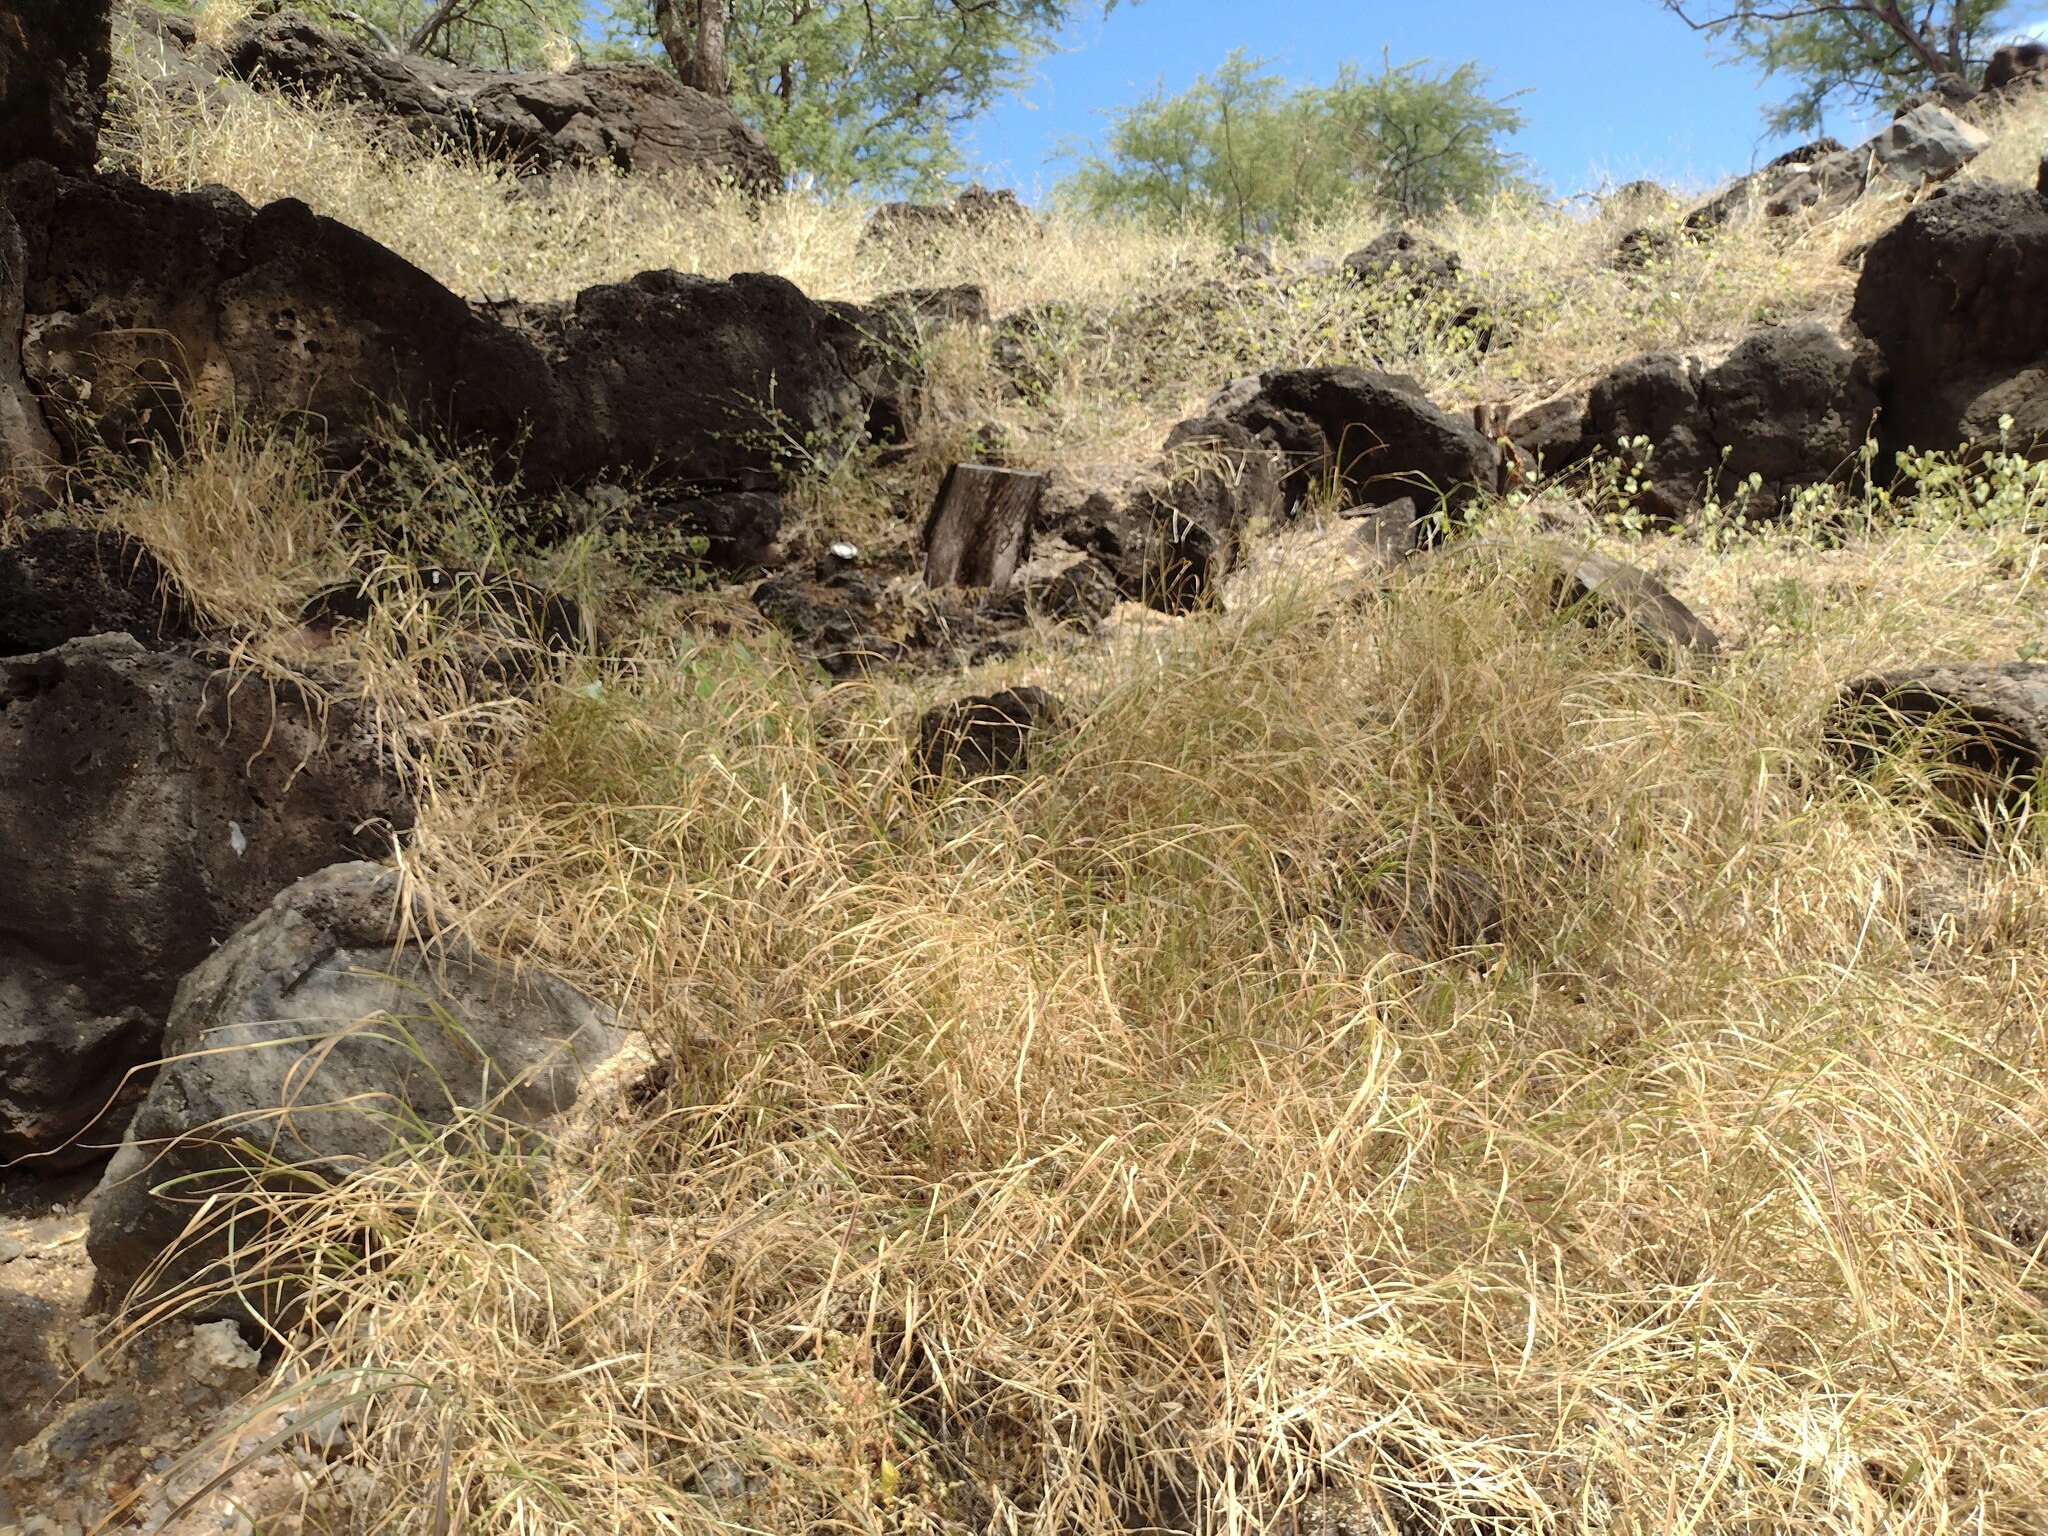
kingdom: Plantae
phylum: Tracheophyta
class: Liliopsida
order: Poales
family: Poaceae
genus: Cenchrus
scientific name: Cenchrus ciliaris
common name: Buffelgrass
